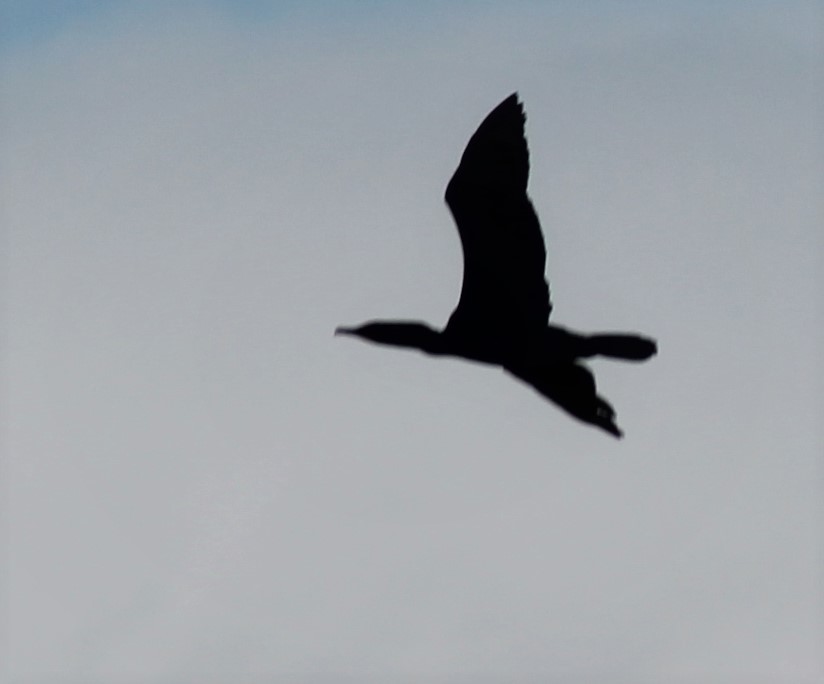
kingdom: Animalia
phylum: Chordata
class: Aves
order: Suliformes
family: Phalacrocoracidae
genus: Phalacrocorax
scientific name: Phalacrocorax auritus
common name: Double-crested cormorant
